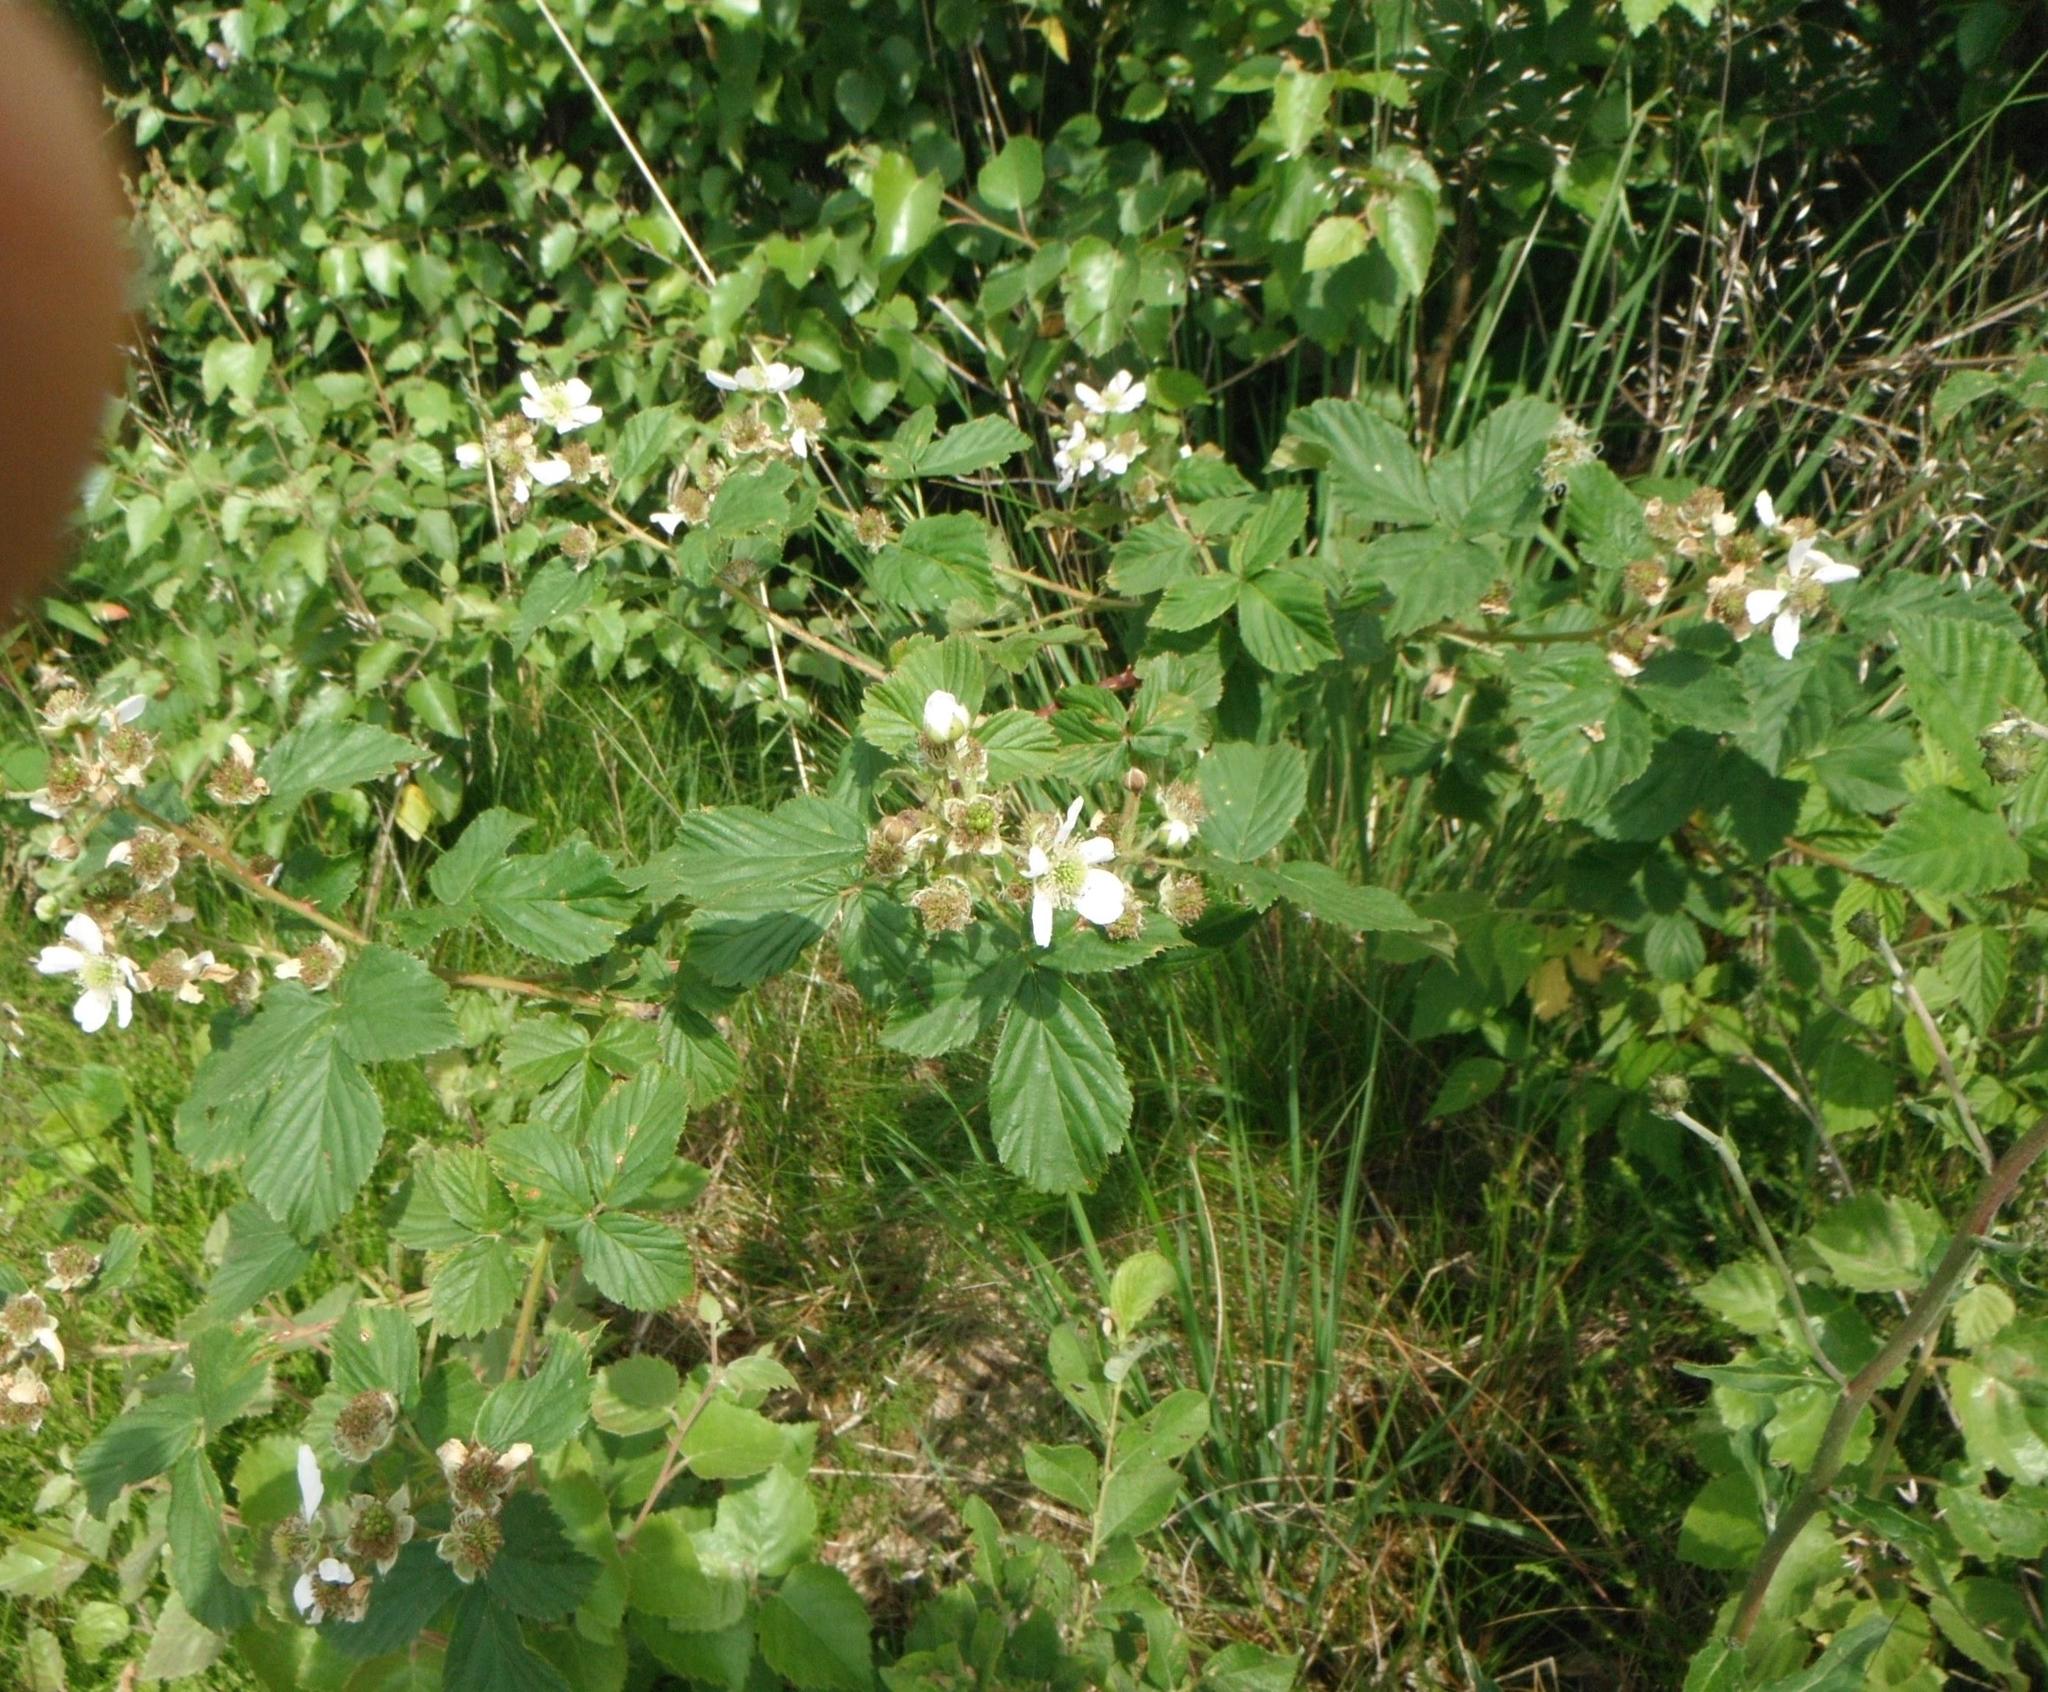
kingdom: Plantae
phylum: Tracheophyta
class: Magnoliopsida
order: Rosales
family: Rosaceae
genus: Rubus
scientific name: Rubus fruticosus
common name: Blackberry, bramble
